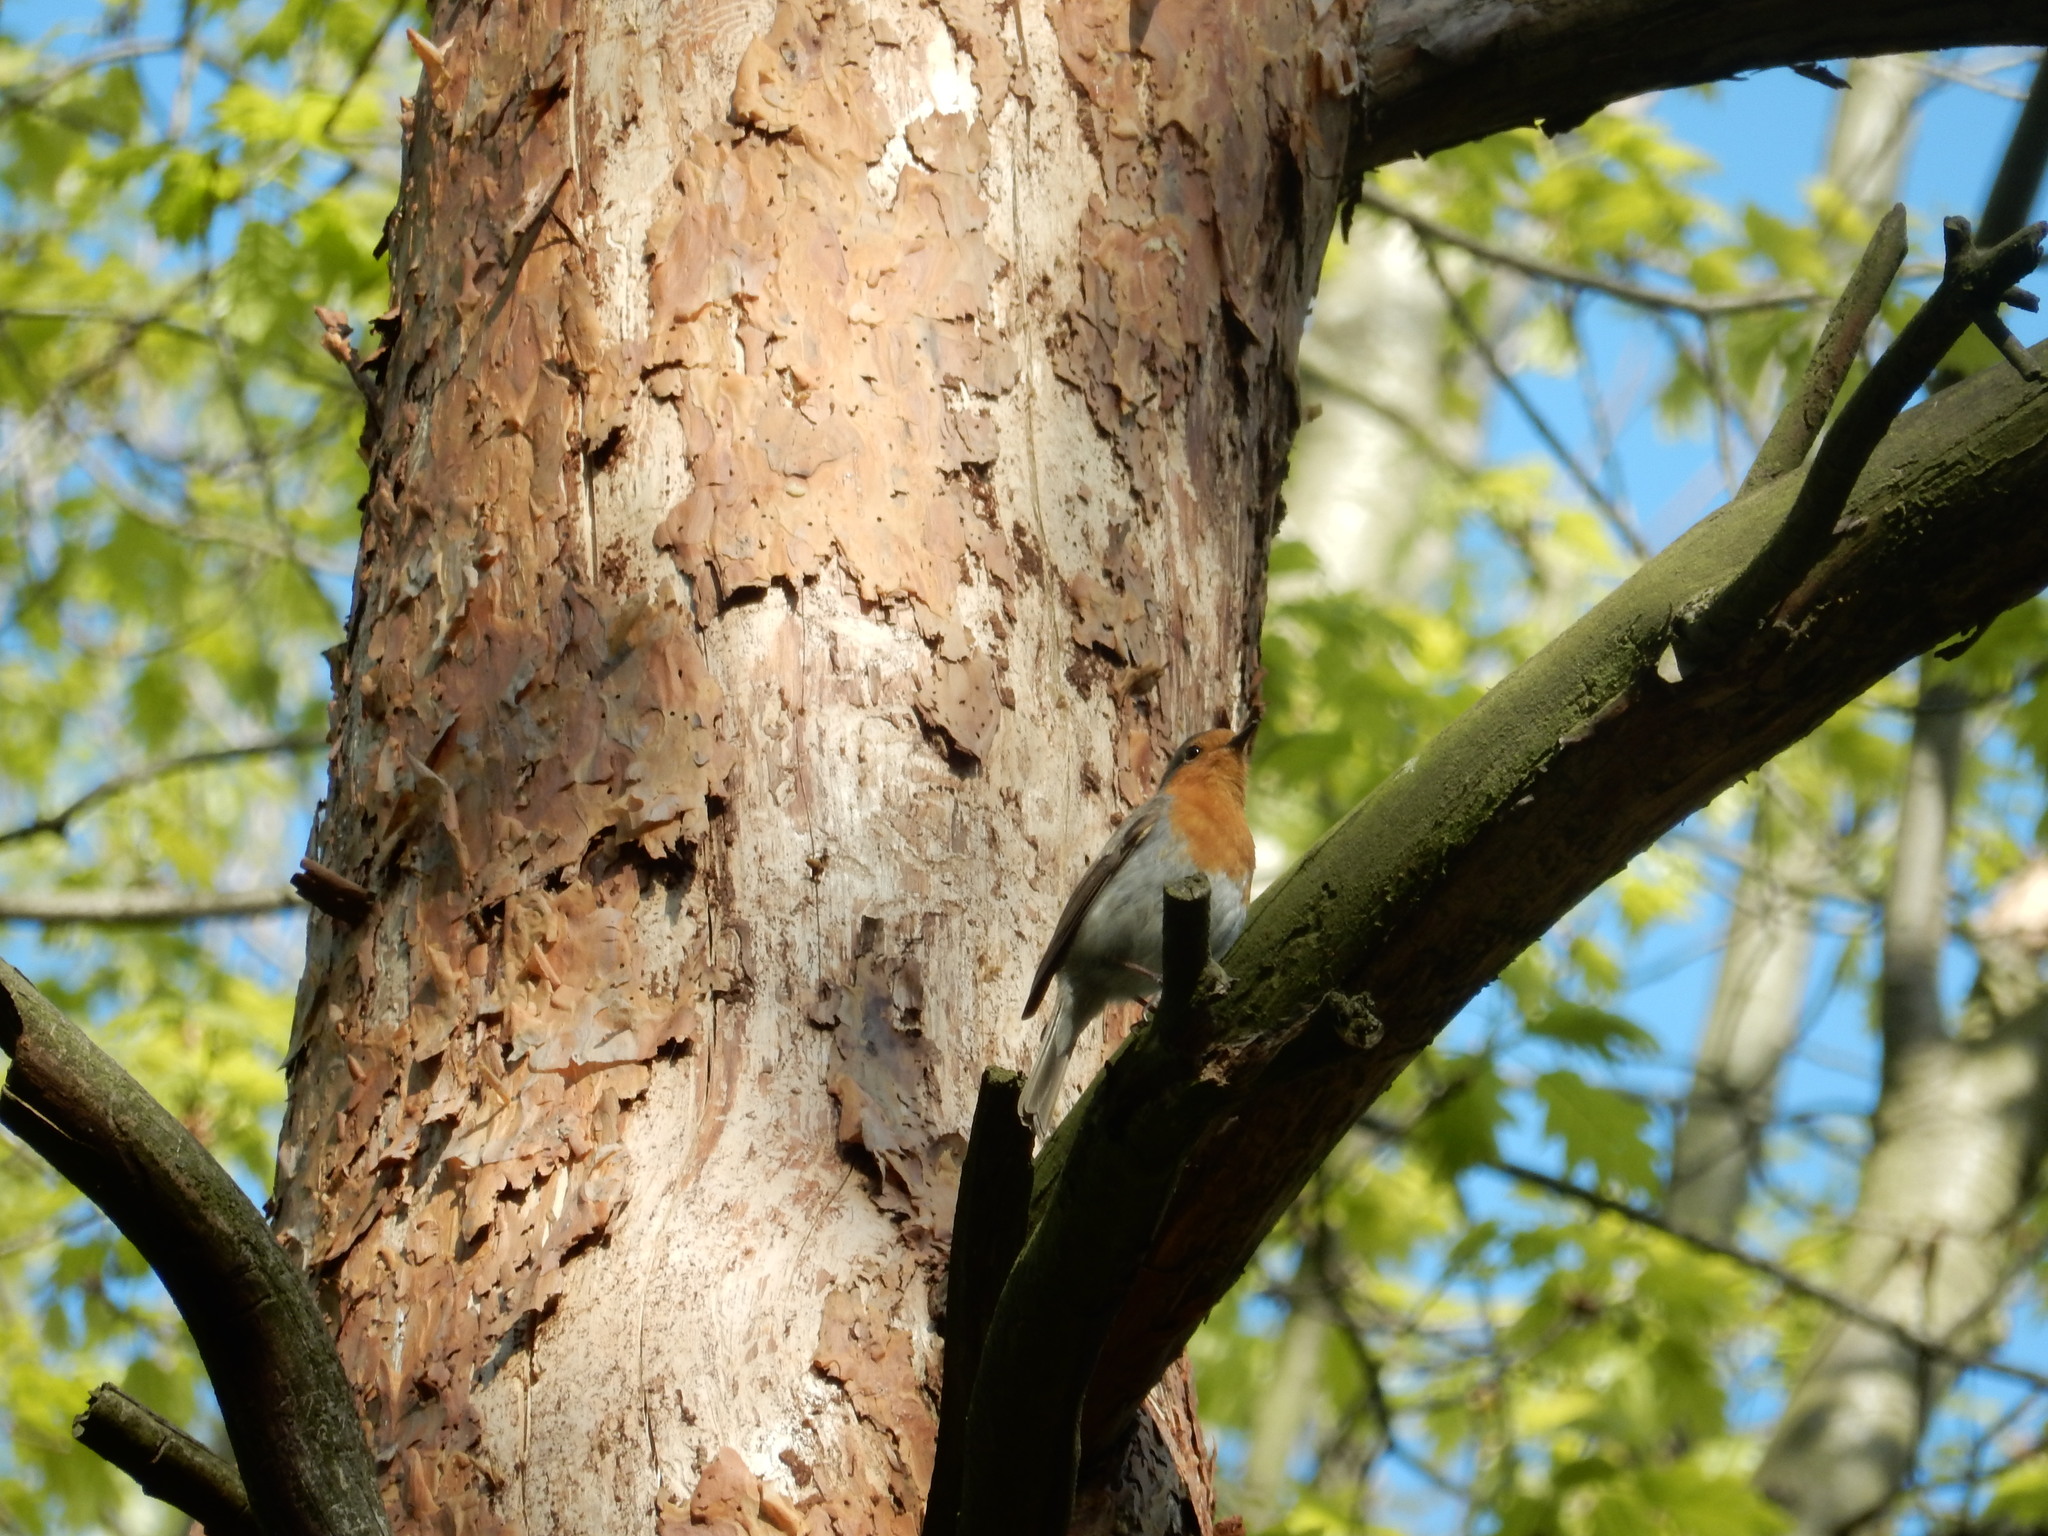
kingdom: Animalia
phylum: Chordata
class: Aves
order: Passeriformes
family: Muscicapidae
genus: Erithacus
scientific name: Erithacus rubecula
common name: European robin
